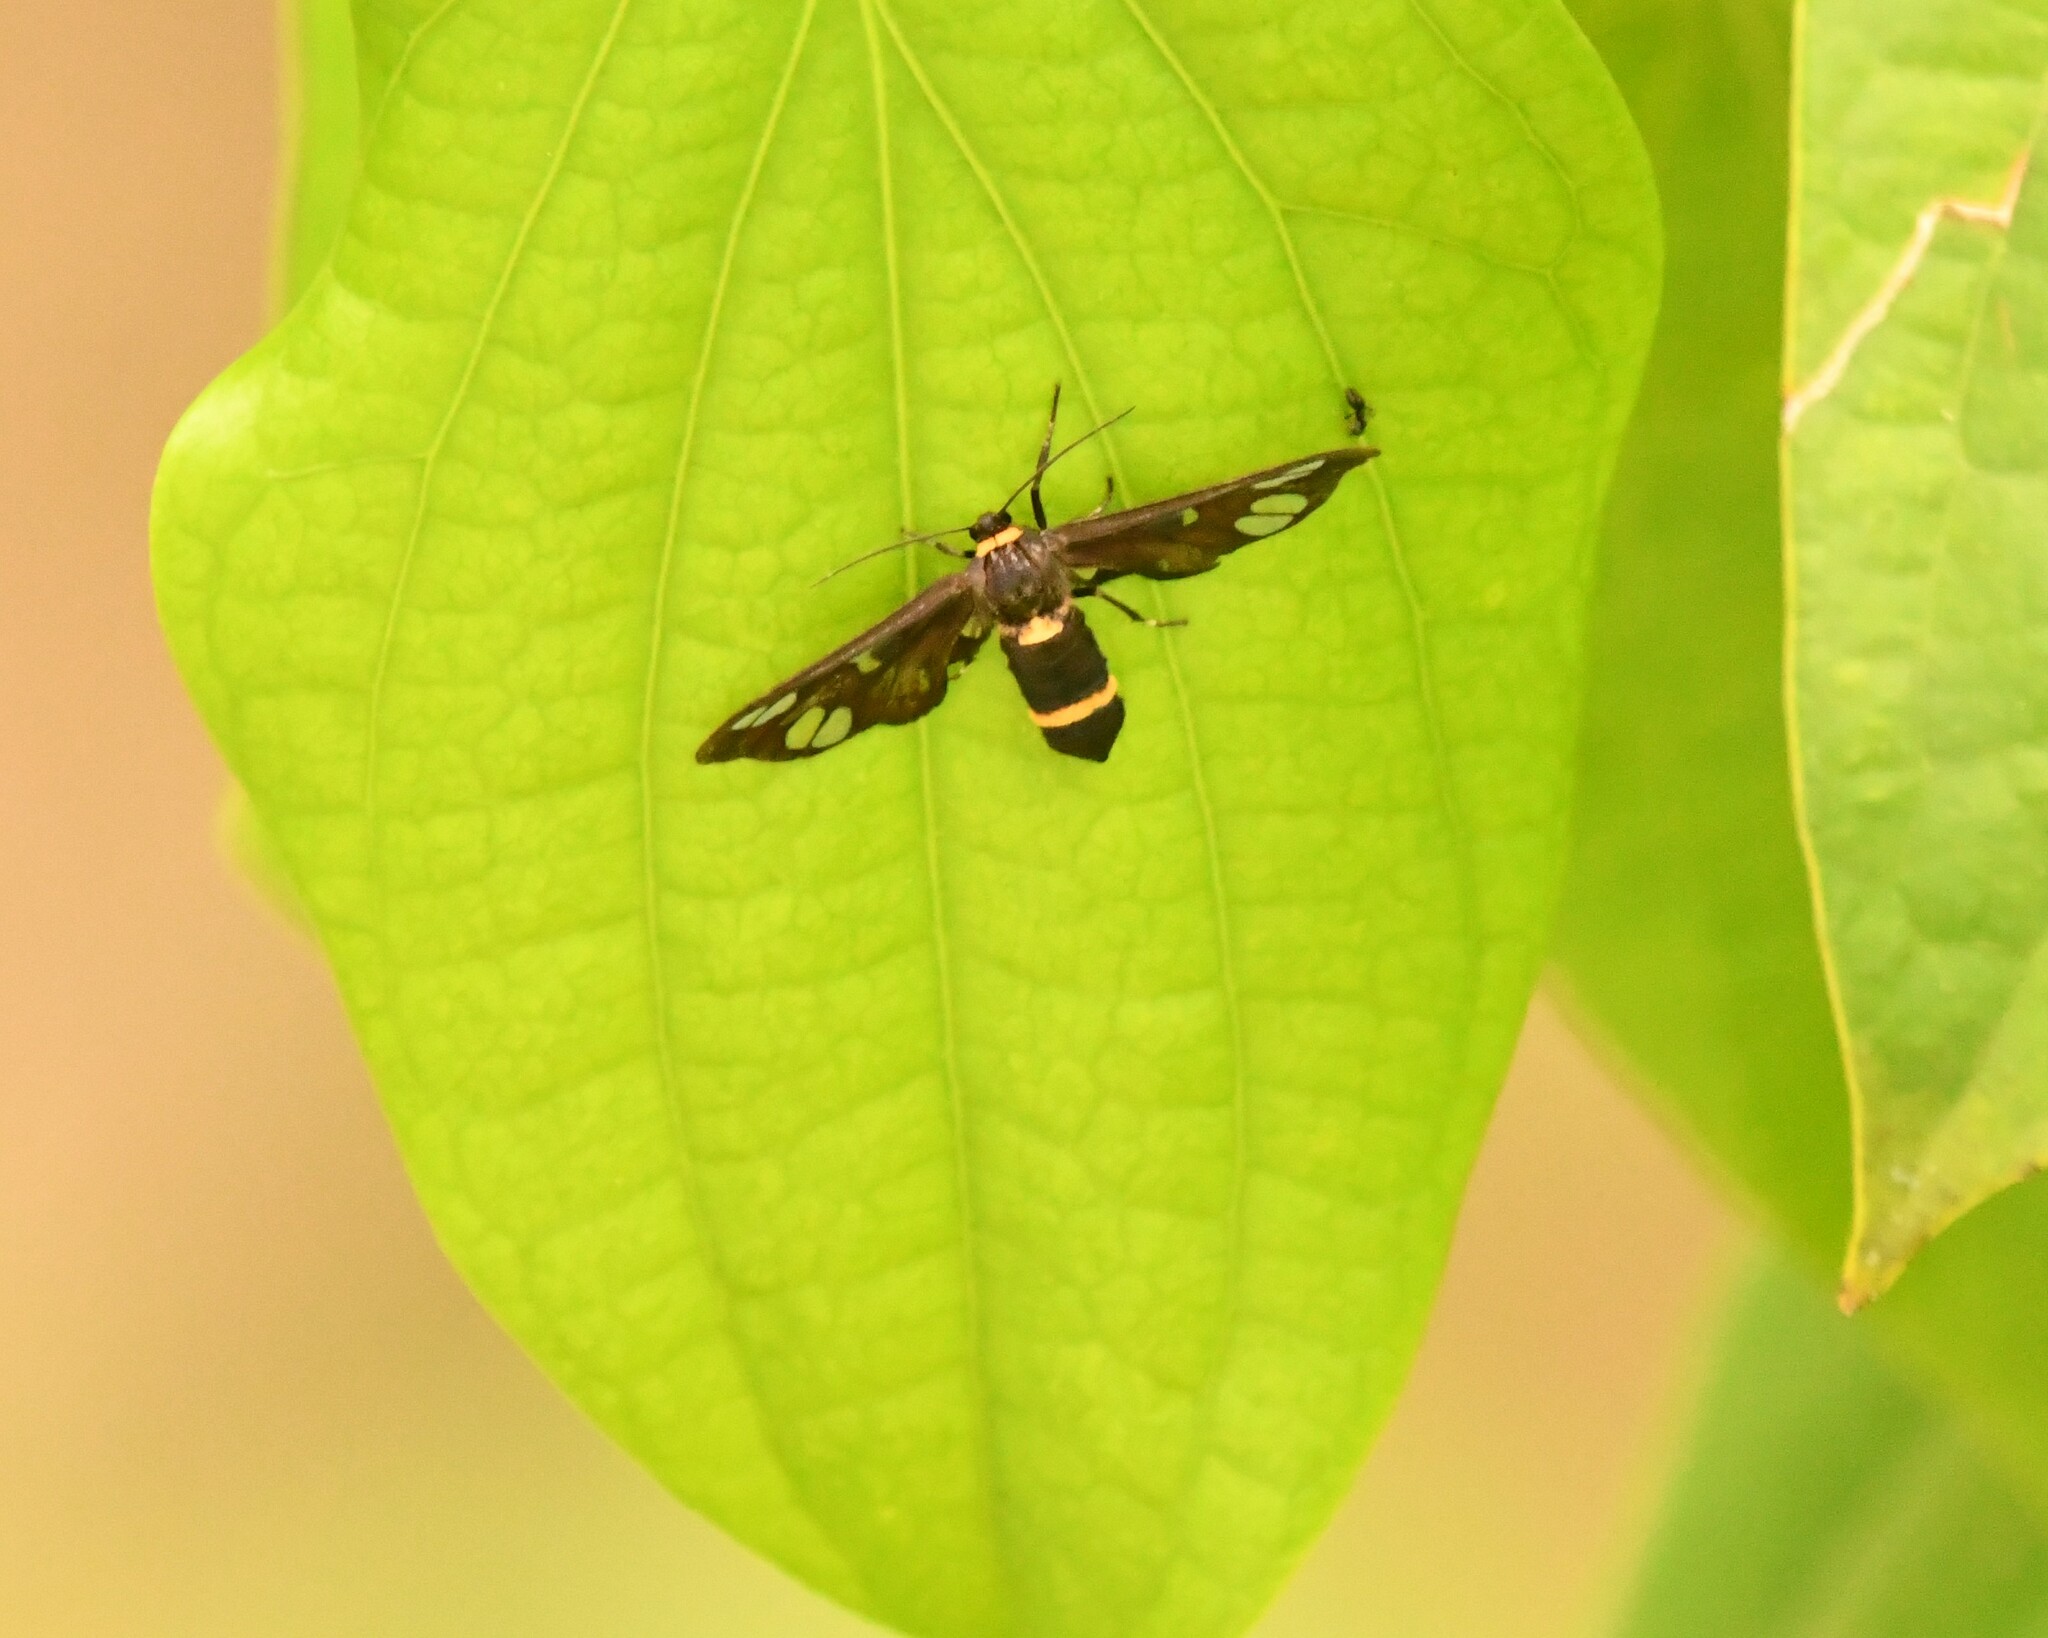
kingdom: Animalia
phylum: Arthropoda
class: Insecta
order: Lepidoptera
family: Erebidae
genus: Syntomoides
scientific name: Syntomoides imaon
